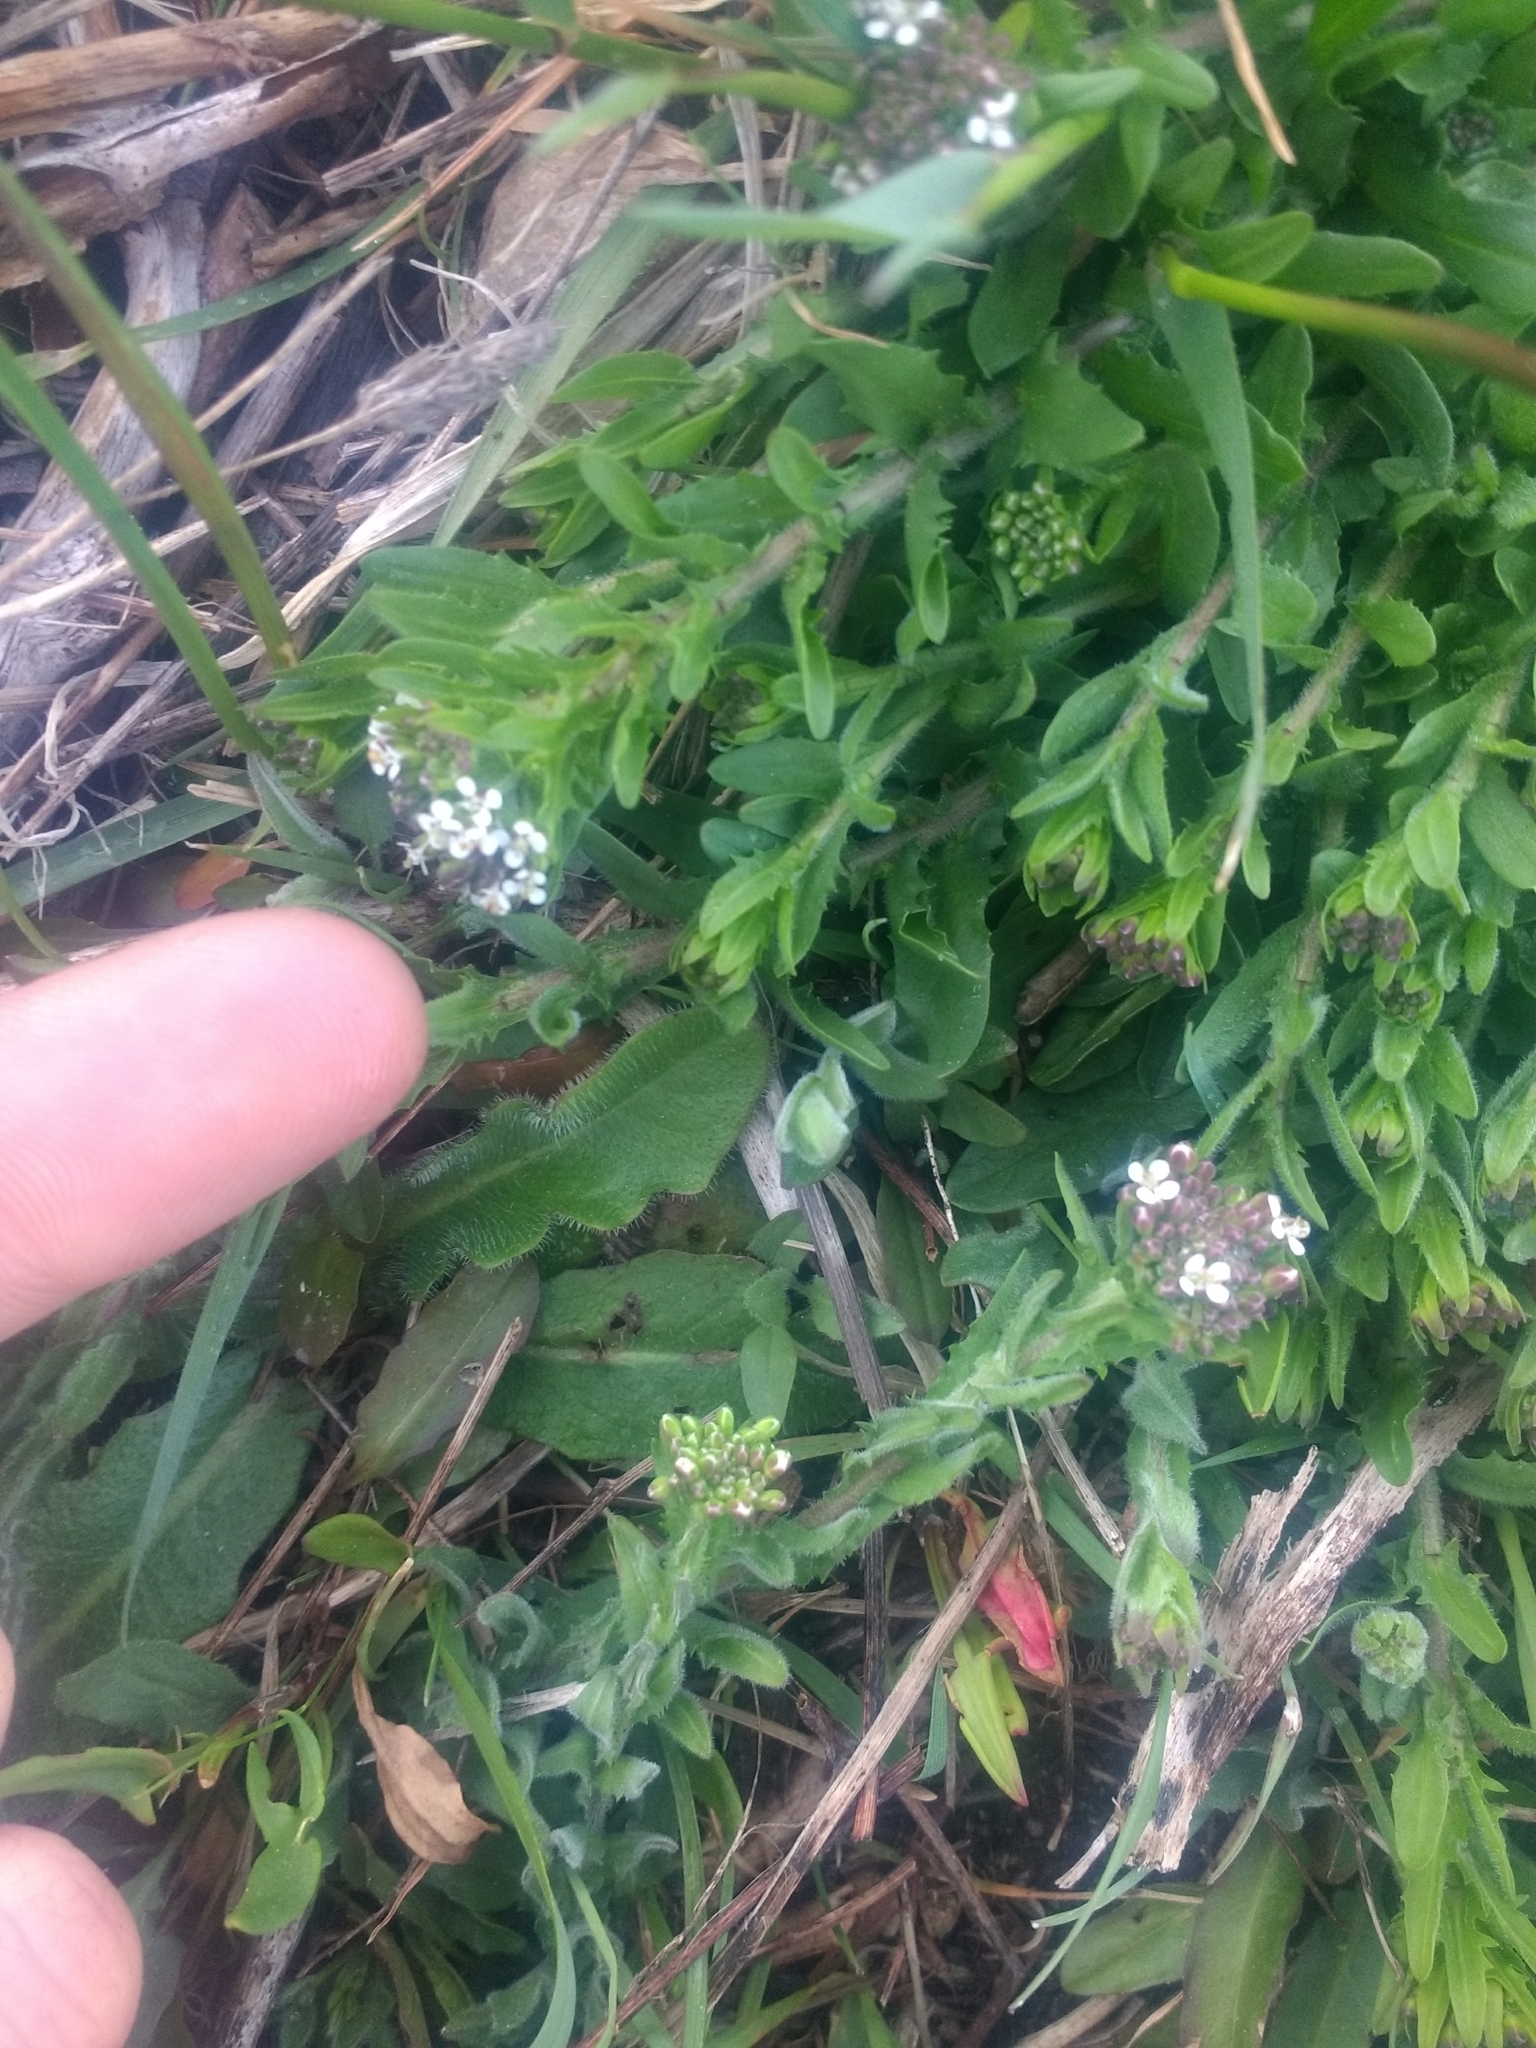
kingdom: Plantae
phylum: Tracheophyta
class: Magnoliopsida
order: Brassicales
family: Brassicaceae
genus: Lepidium
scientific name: Lepidium heterophyllum
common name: Smith's pepperwort
